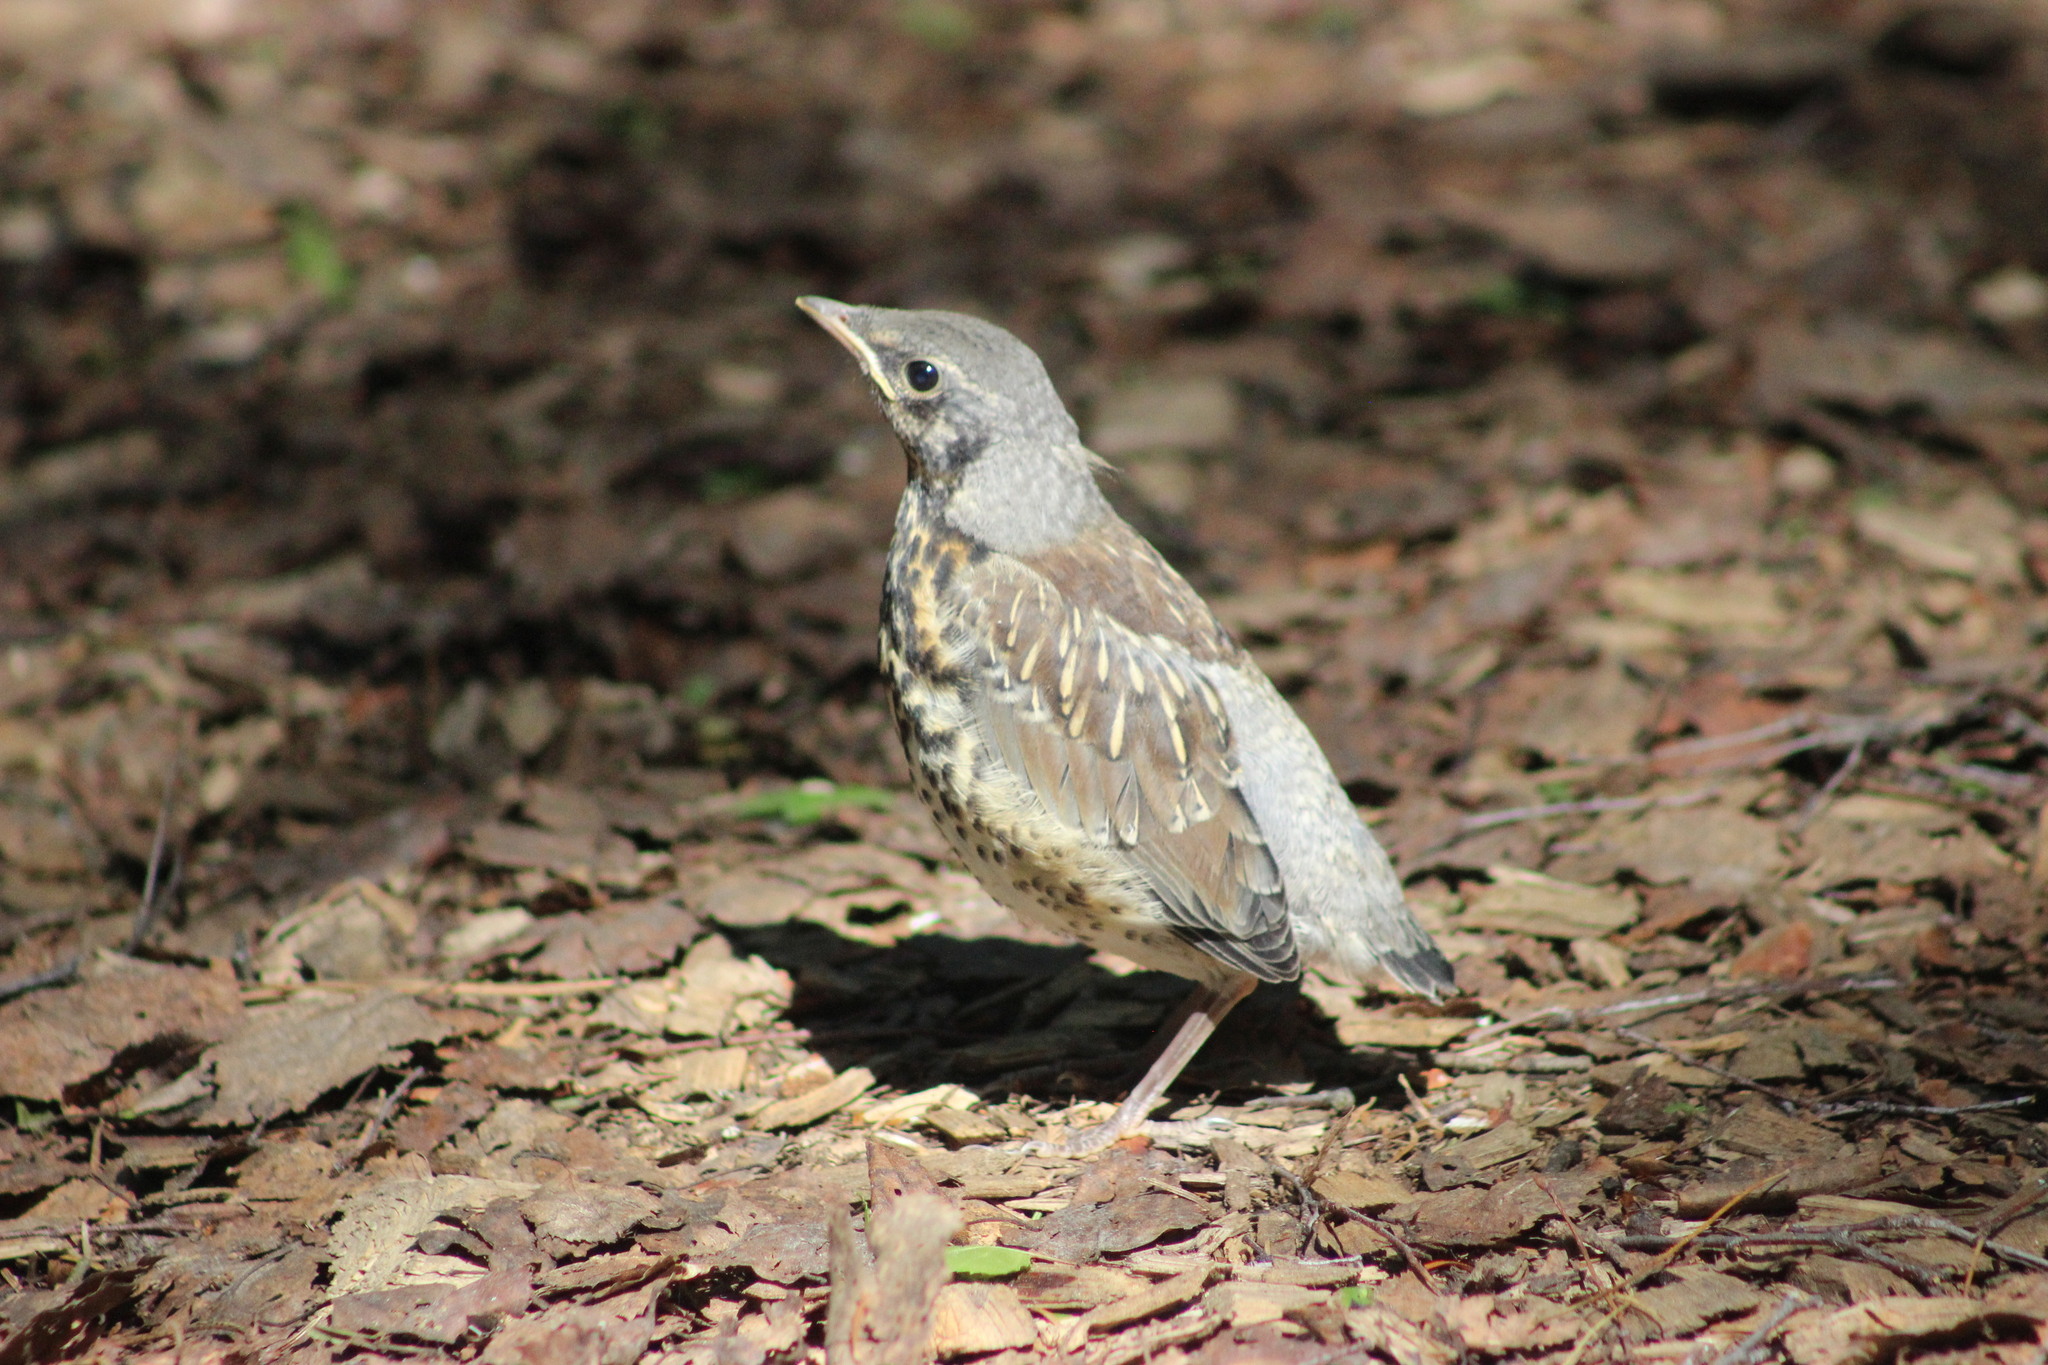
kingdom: Animalia
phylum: Chordata
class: Aves
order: Passeriformes
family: Turdidae
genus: Turdus
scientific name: Turdus pilaris
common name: Fieldfare
